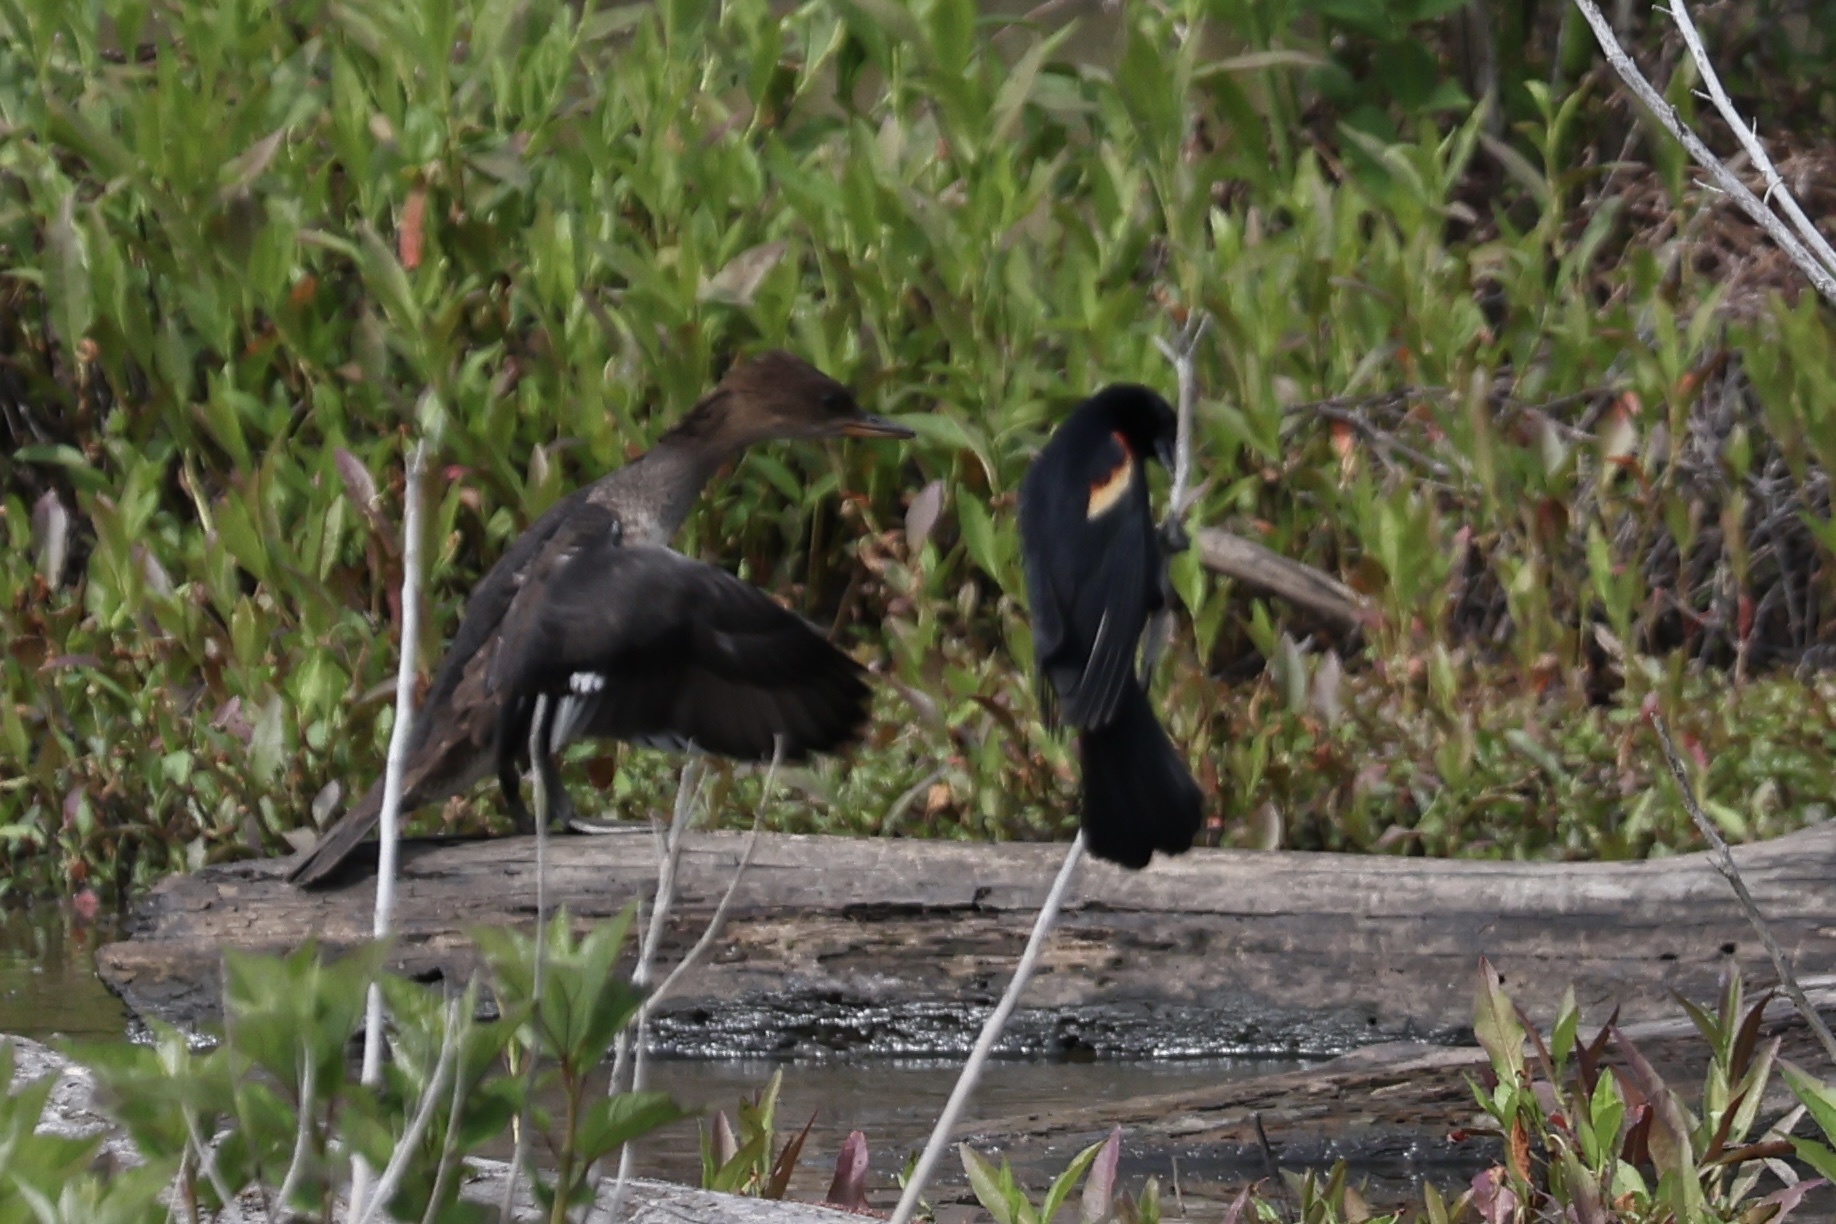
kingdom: Animalia
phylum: Chordata
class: Aves
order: Anseriformes
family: Anatidae
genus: Lophodytes
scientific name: Lophodytes cucullatus
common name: Hooded merganser
